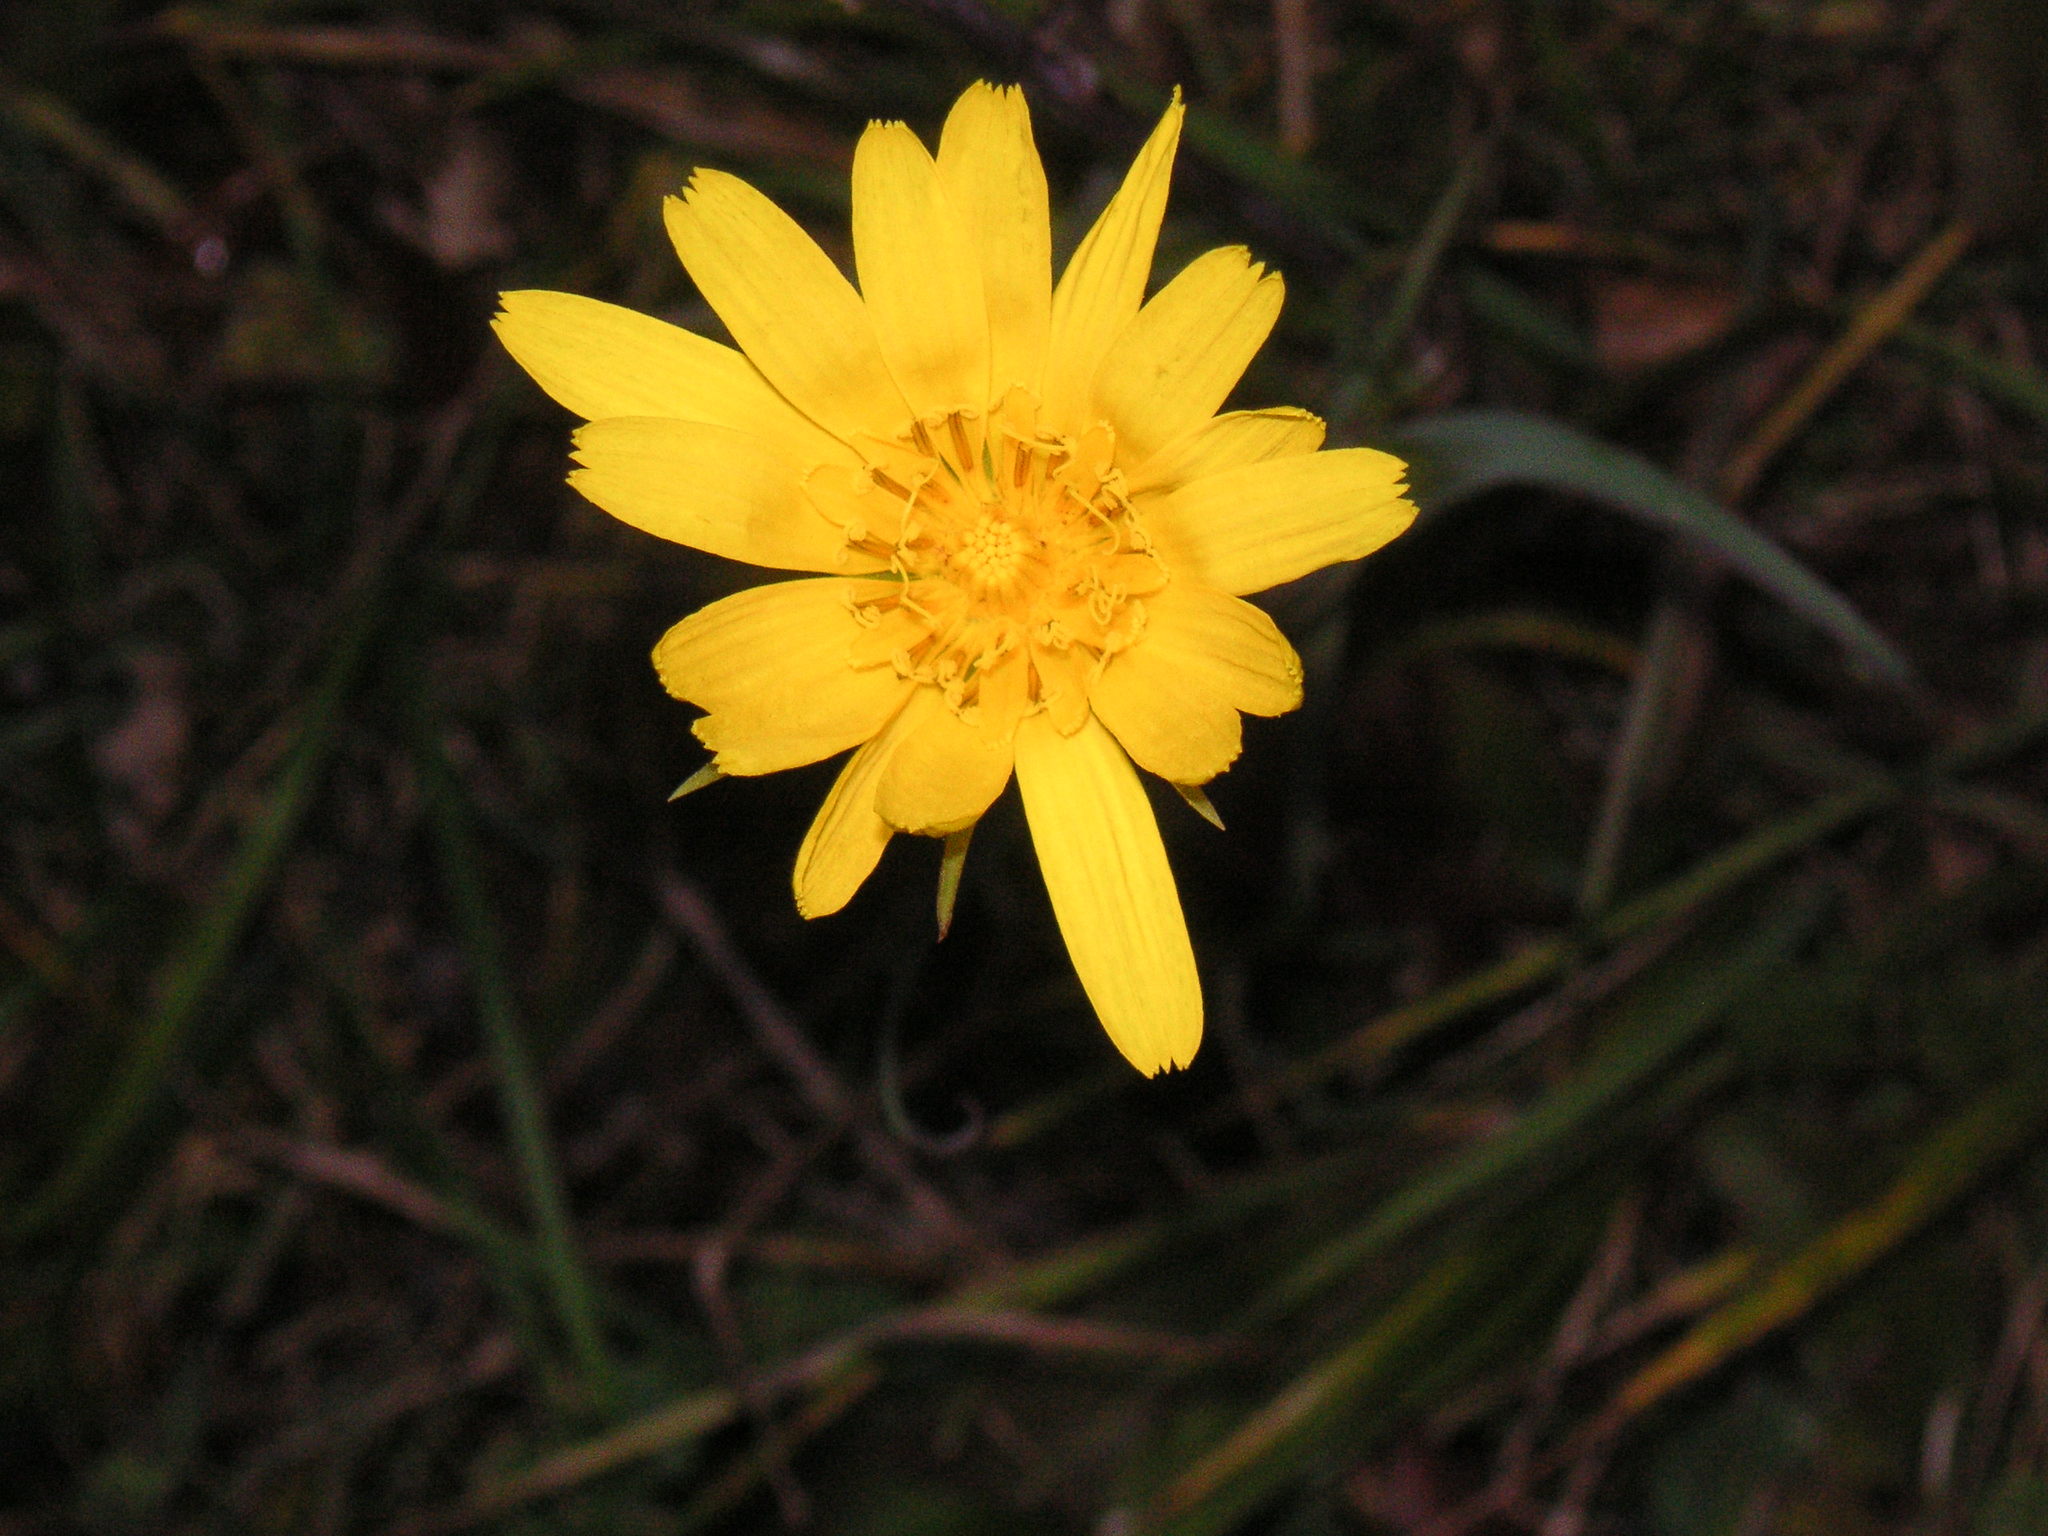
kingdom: Plantae
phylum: Tracheophyta
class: Magnoliopsida
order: Asterales
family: Asteraceae
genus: Tragopogon
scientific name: Tragopogon orientalis
